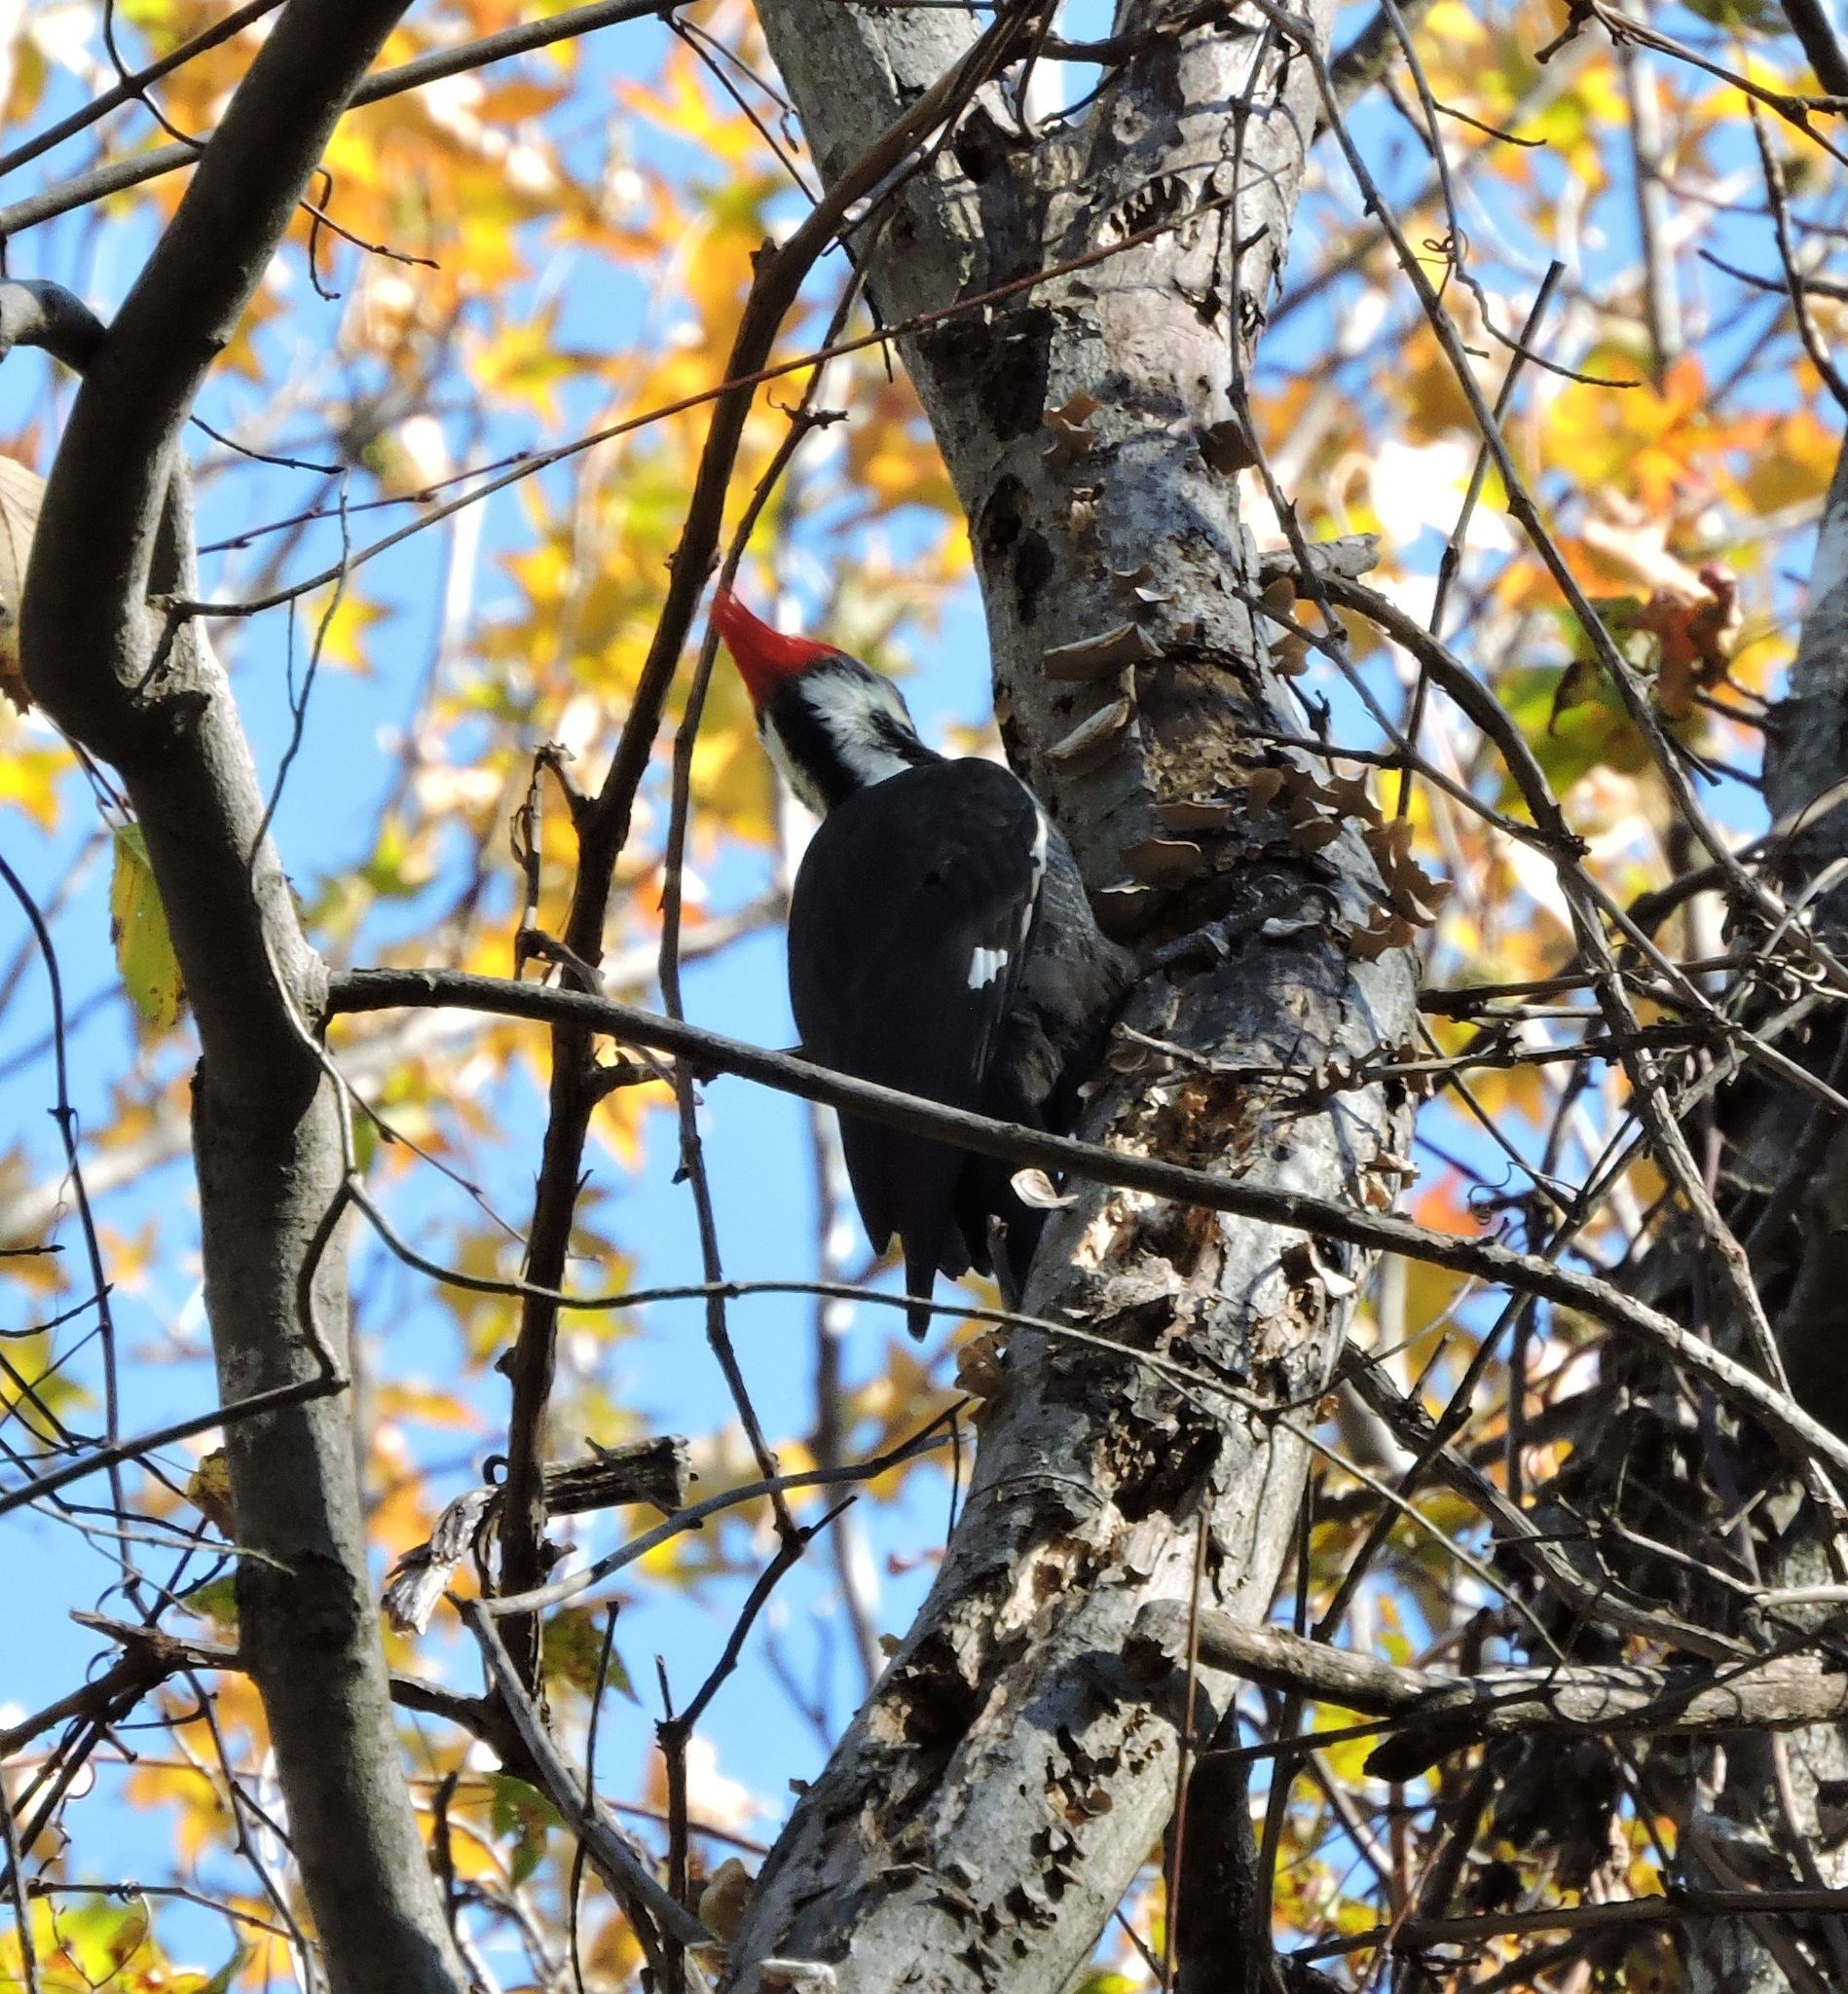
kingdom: Animalia
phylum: Chordata
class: Aves
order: Piciformes
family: Picidae
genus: Dryocopus
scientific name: Dryocopus pileatus
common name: Pileated woodpecker
